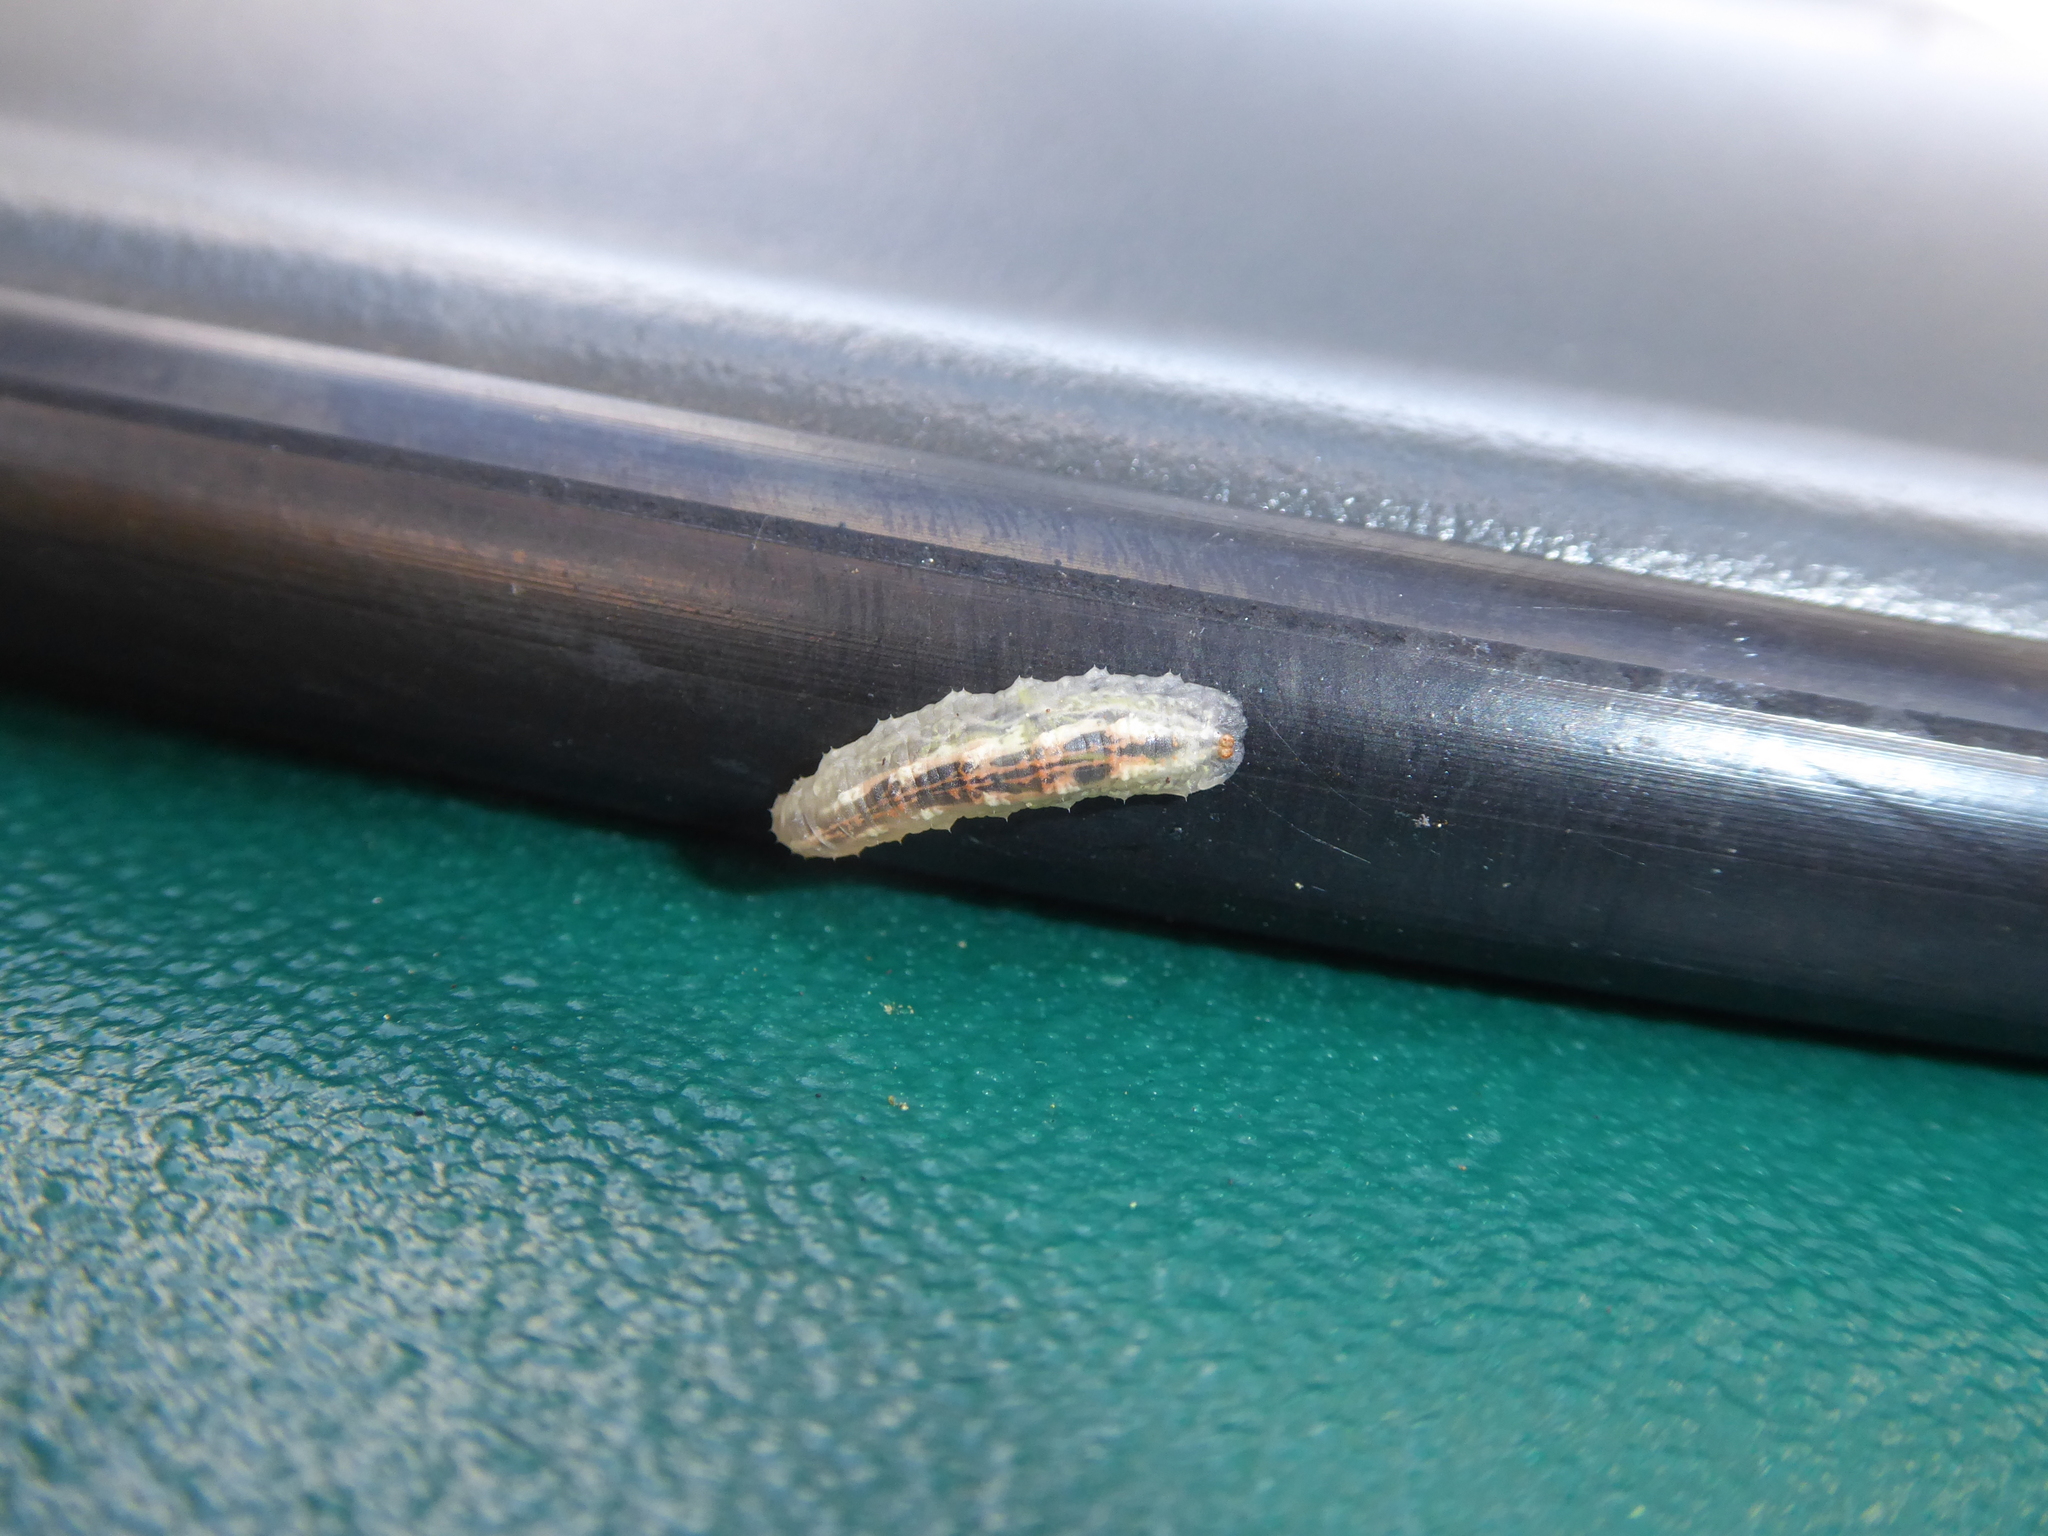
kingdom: Animalia
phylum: Arthropoda
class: Insecta
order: Diptera
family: Syrphidae
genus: Syrphus
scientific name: Syrphus
